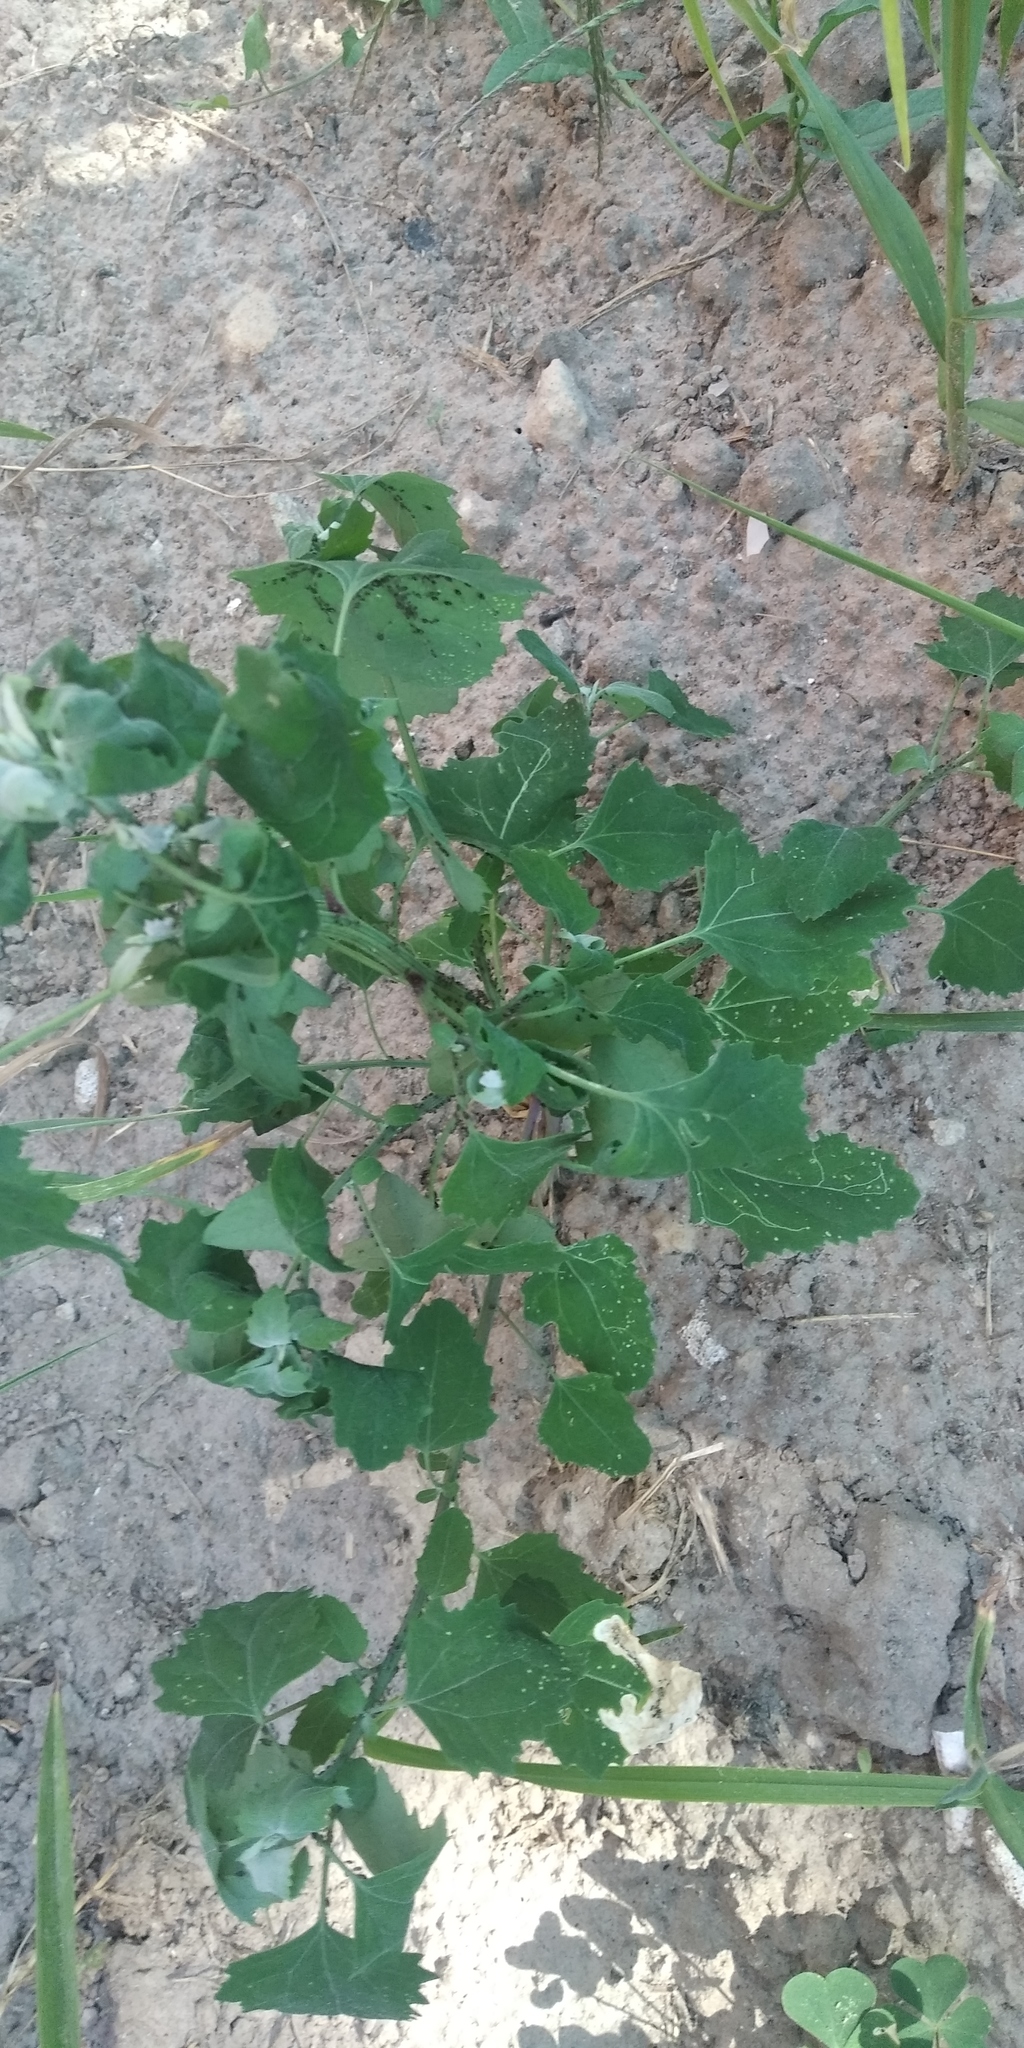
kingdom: Plantae
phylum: Tracheophyta
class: Magnoliopsida
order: Caryophyllales
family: Amaranthaceae
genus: Chenopodium
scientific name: Chenopodium album
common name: Fat-hen
